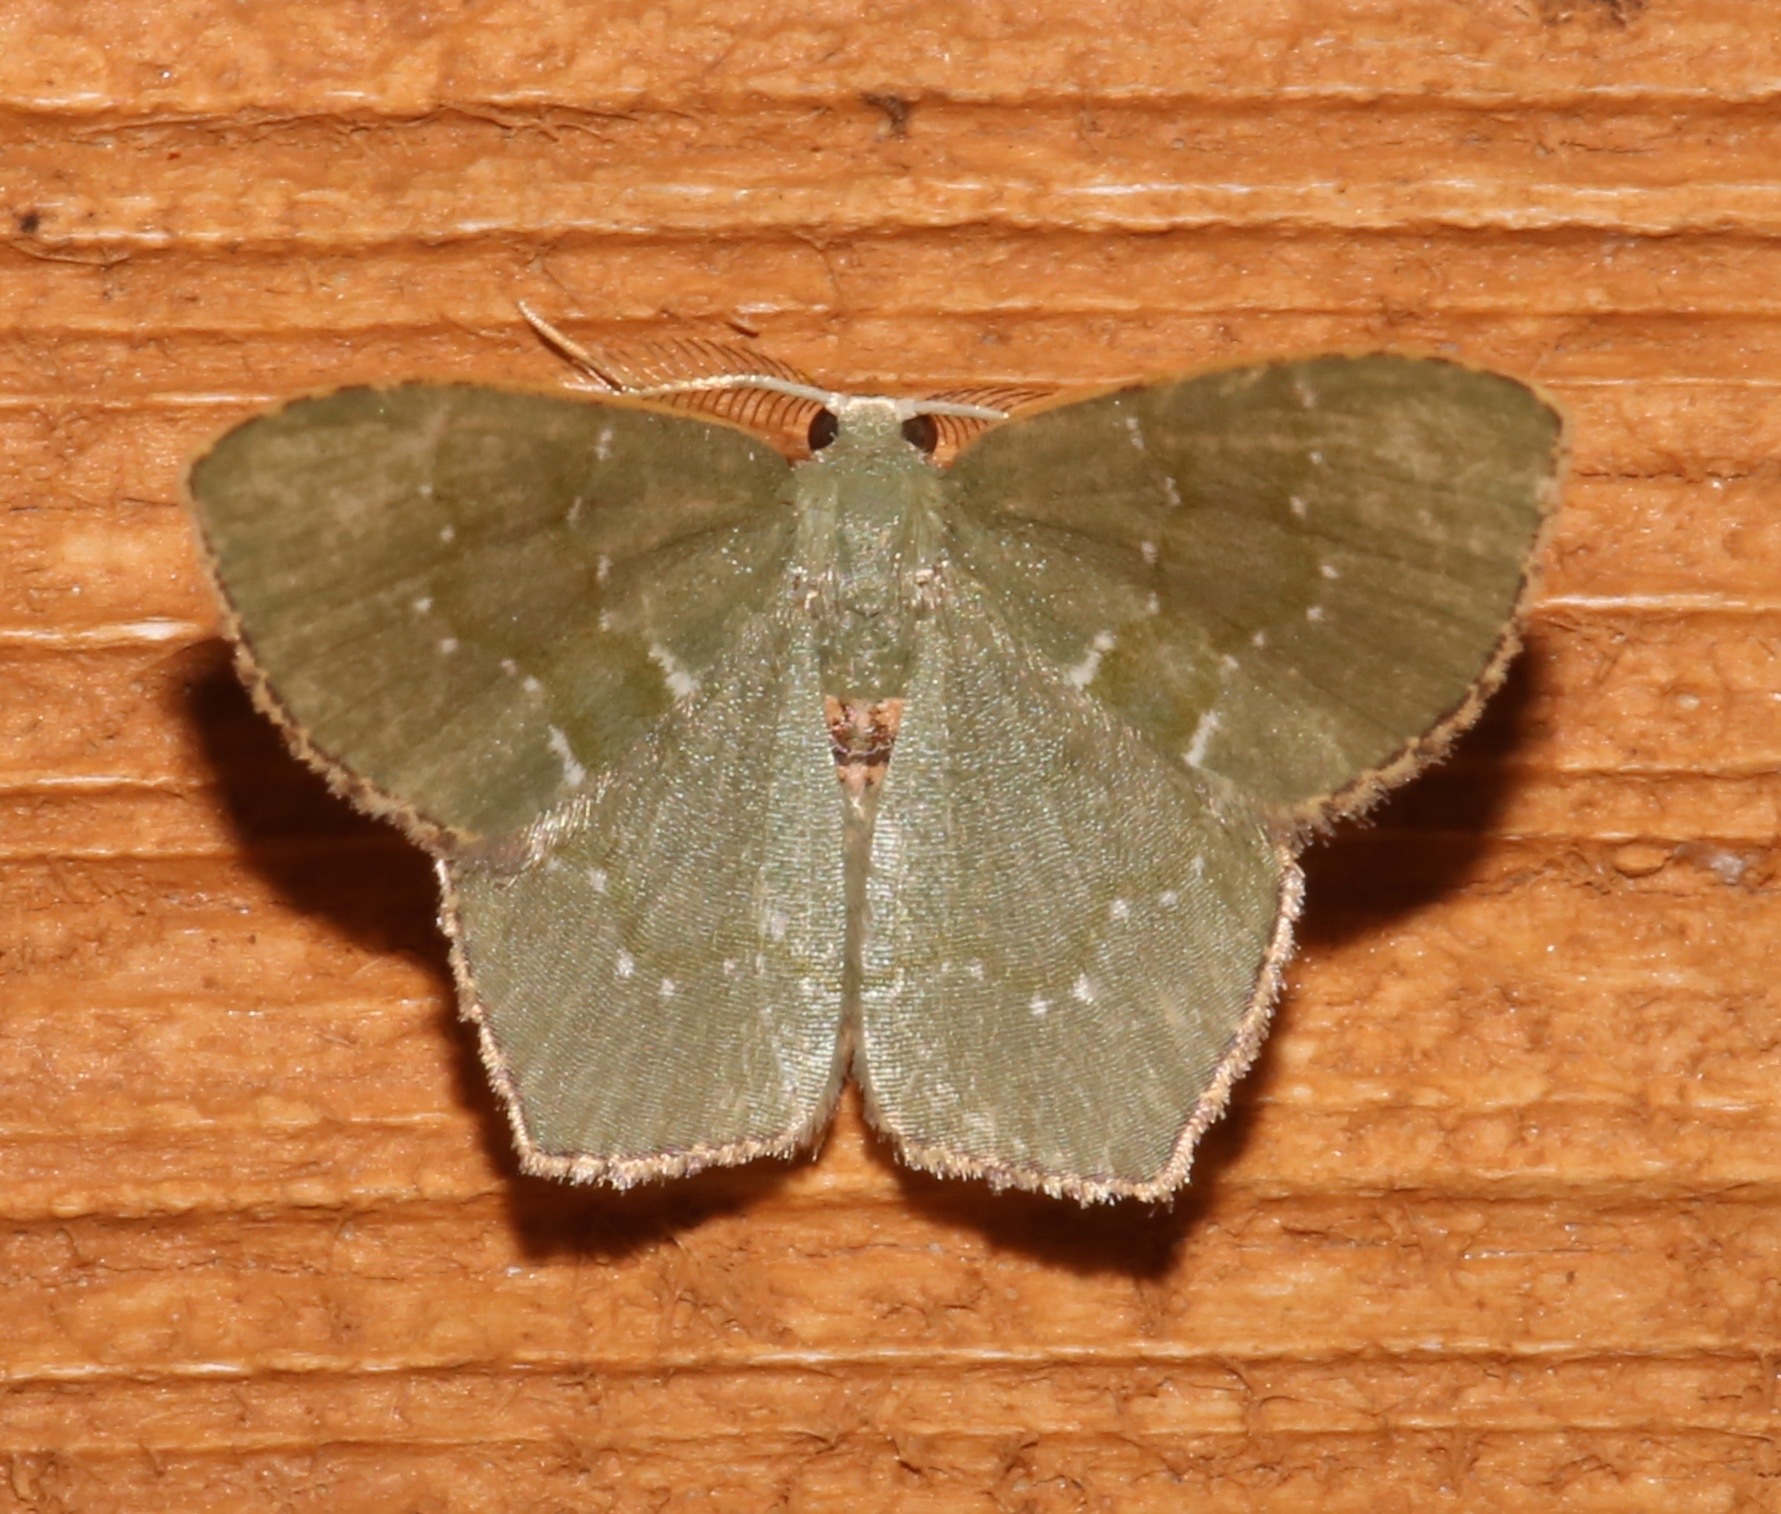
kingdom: Animalia
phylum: Arthropoda
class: Insecta
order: Lepidoptera
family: Geometridae
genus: Chloropteryx
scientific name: Chloropteryx tepperaria
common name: Angle winged emerald moth
